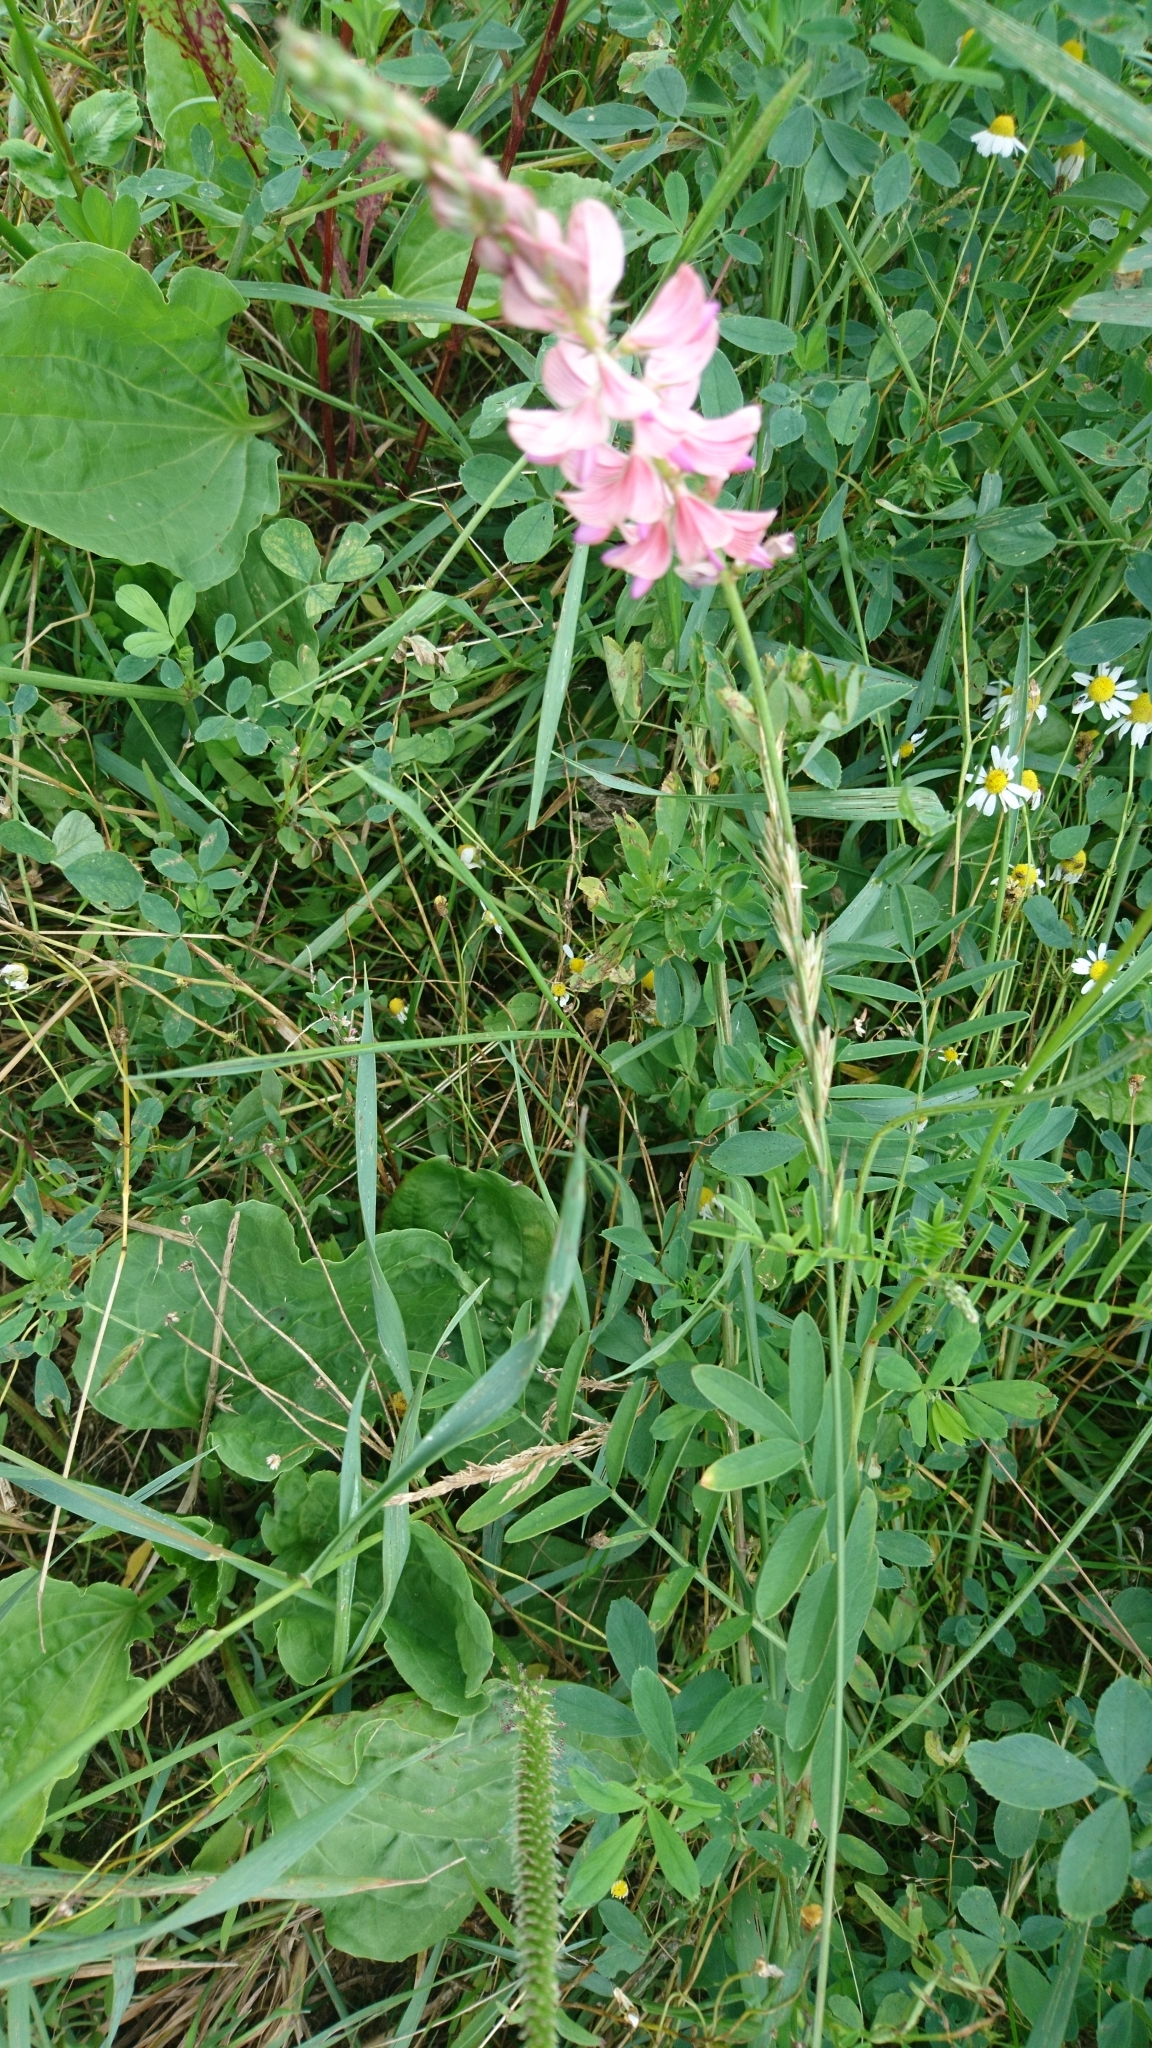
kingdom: Plantae
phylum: Tracheophyta
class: Magnoliopsida
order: Fabales
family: Fabaceae
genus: Onobrychis
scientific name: Onobrychis viciifolia
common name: Sainfoin
